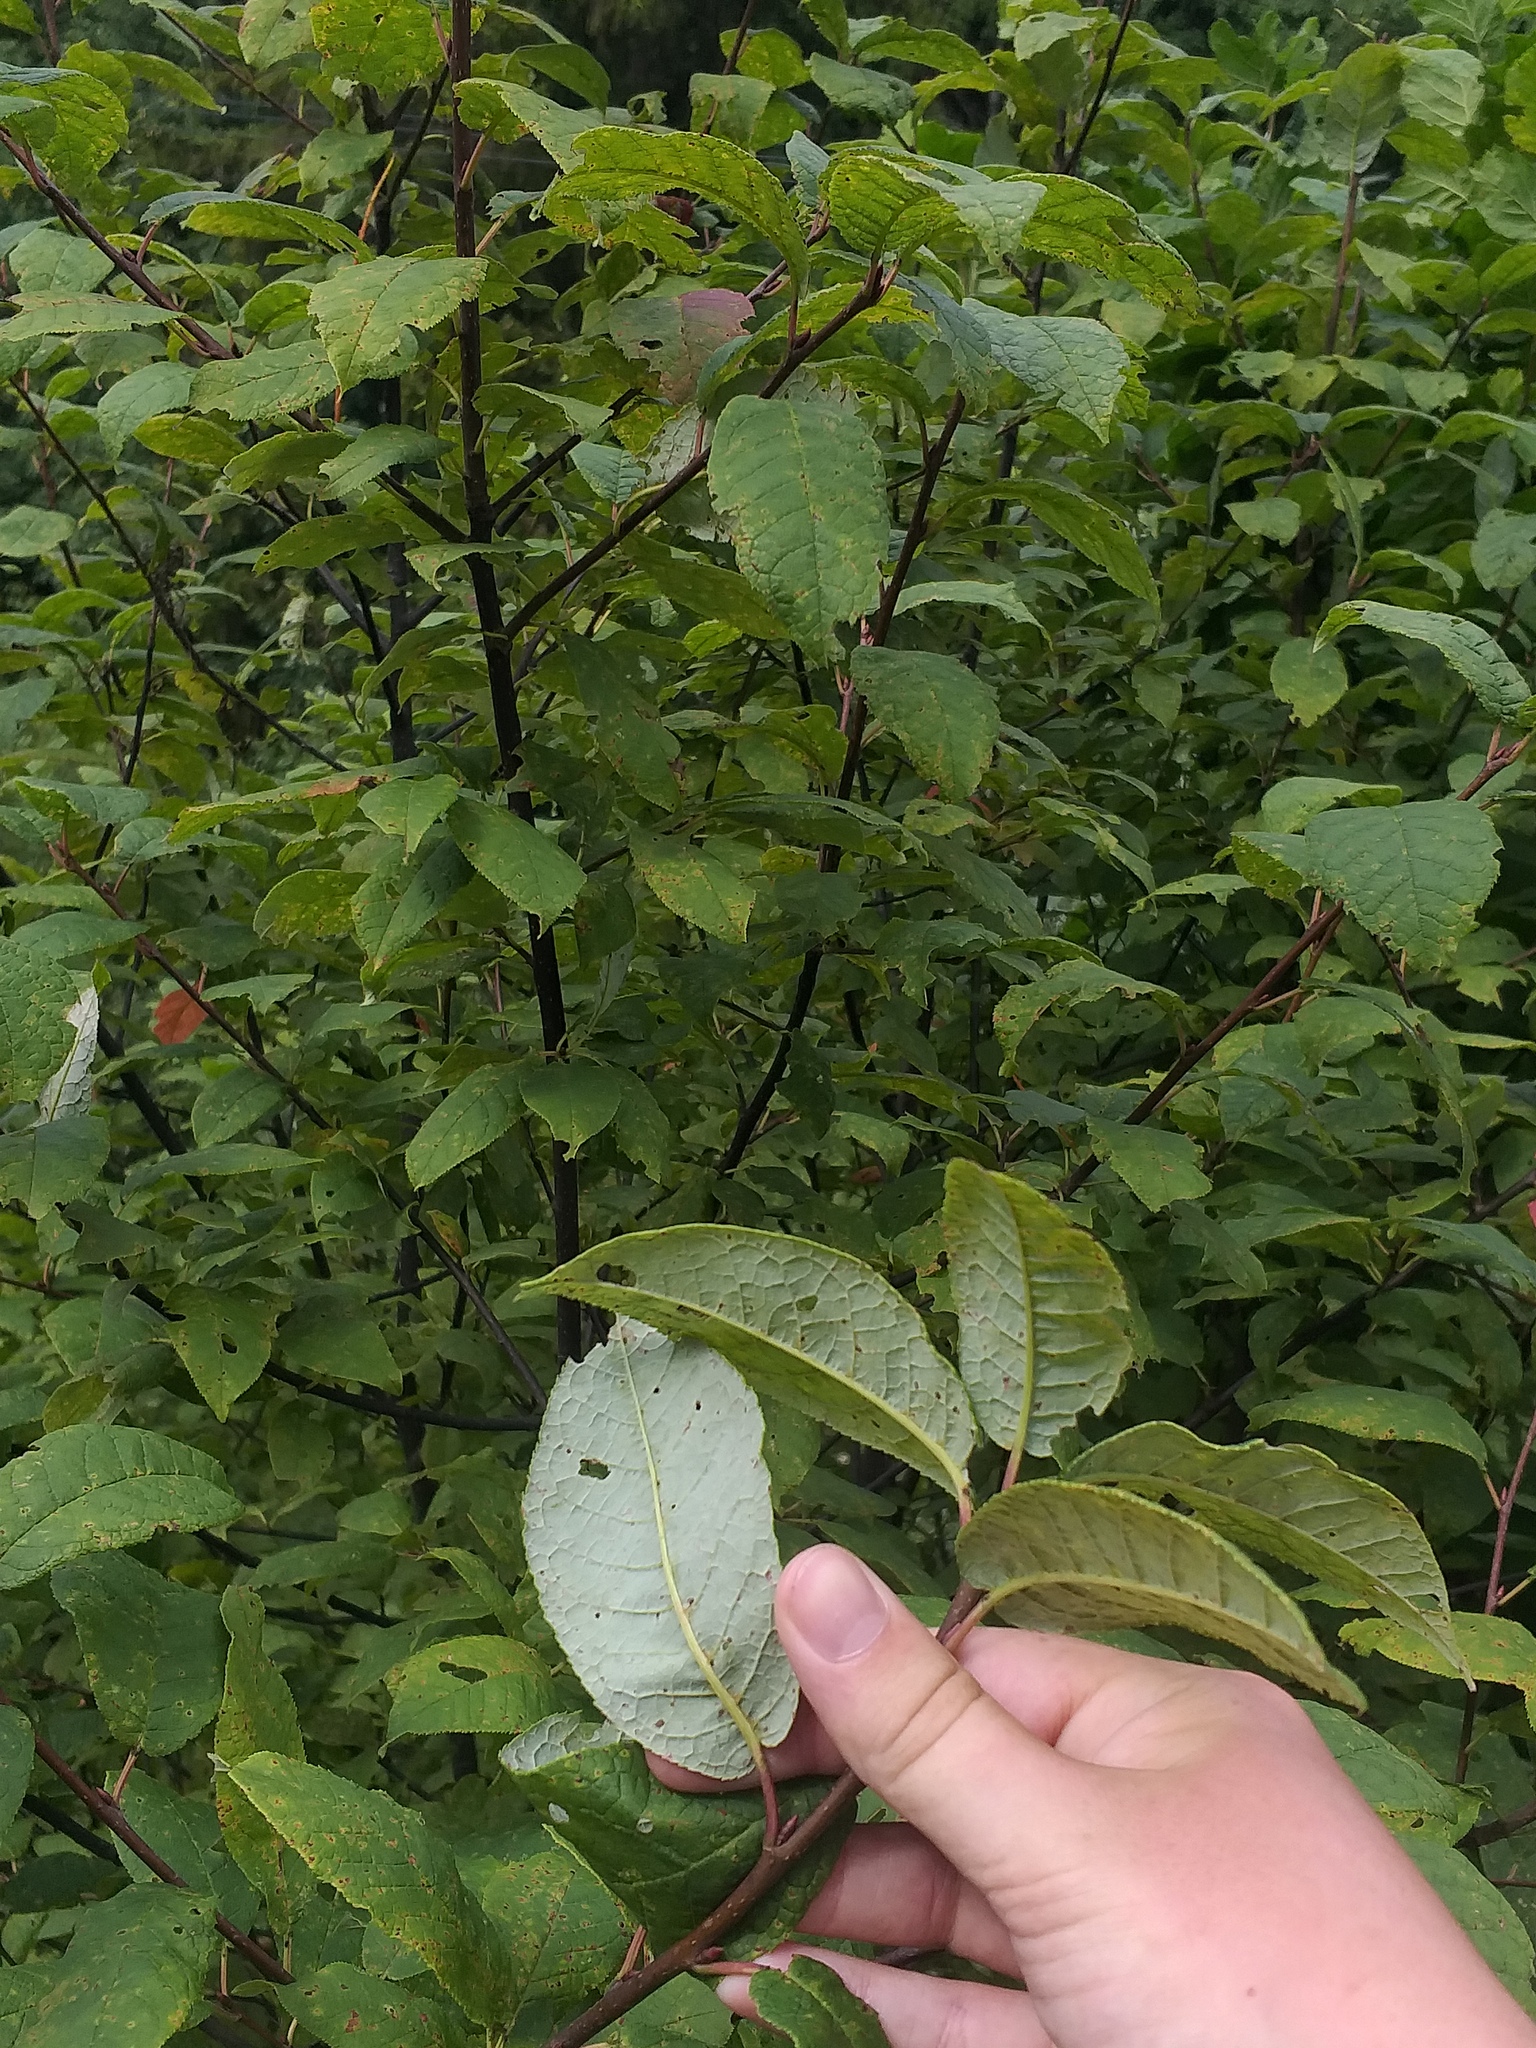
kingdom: Plantae
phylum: Tracheophyta
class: Magnoliopsida
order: Rosales
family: Rosaceae
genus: Prunus
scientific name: Prunus padus
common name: Bird cherry
